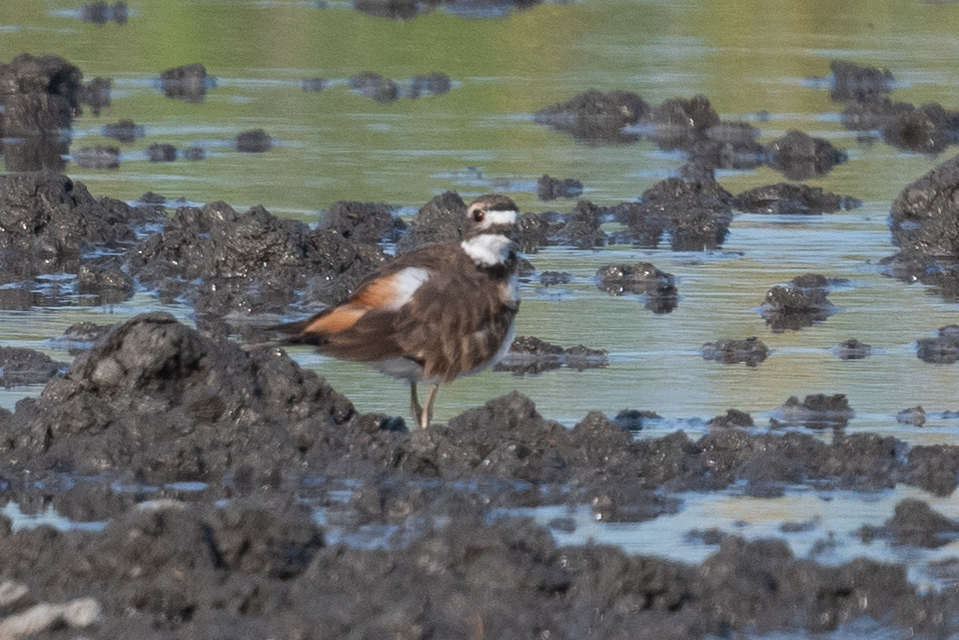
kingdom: Animalia
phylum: Chordata
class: Aves
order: Charadriiformes
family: Charadriidae
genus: Charadrius
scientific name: Charadrius vociferus
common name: Killdeer
